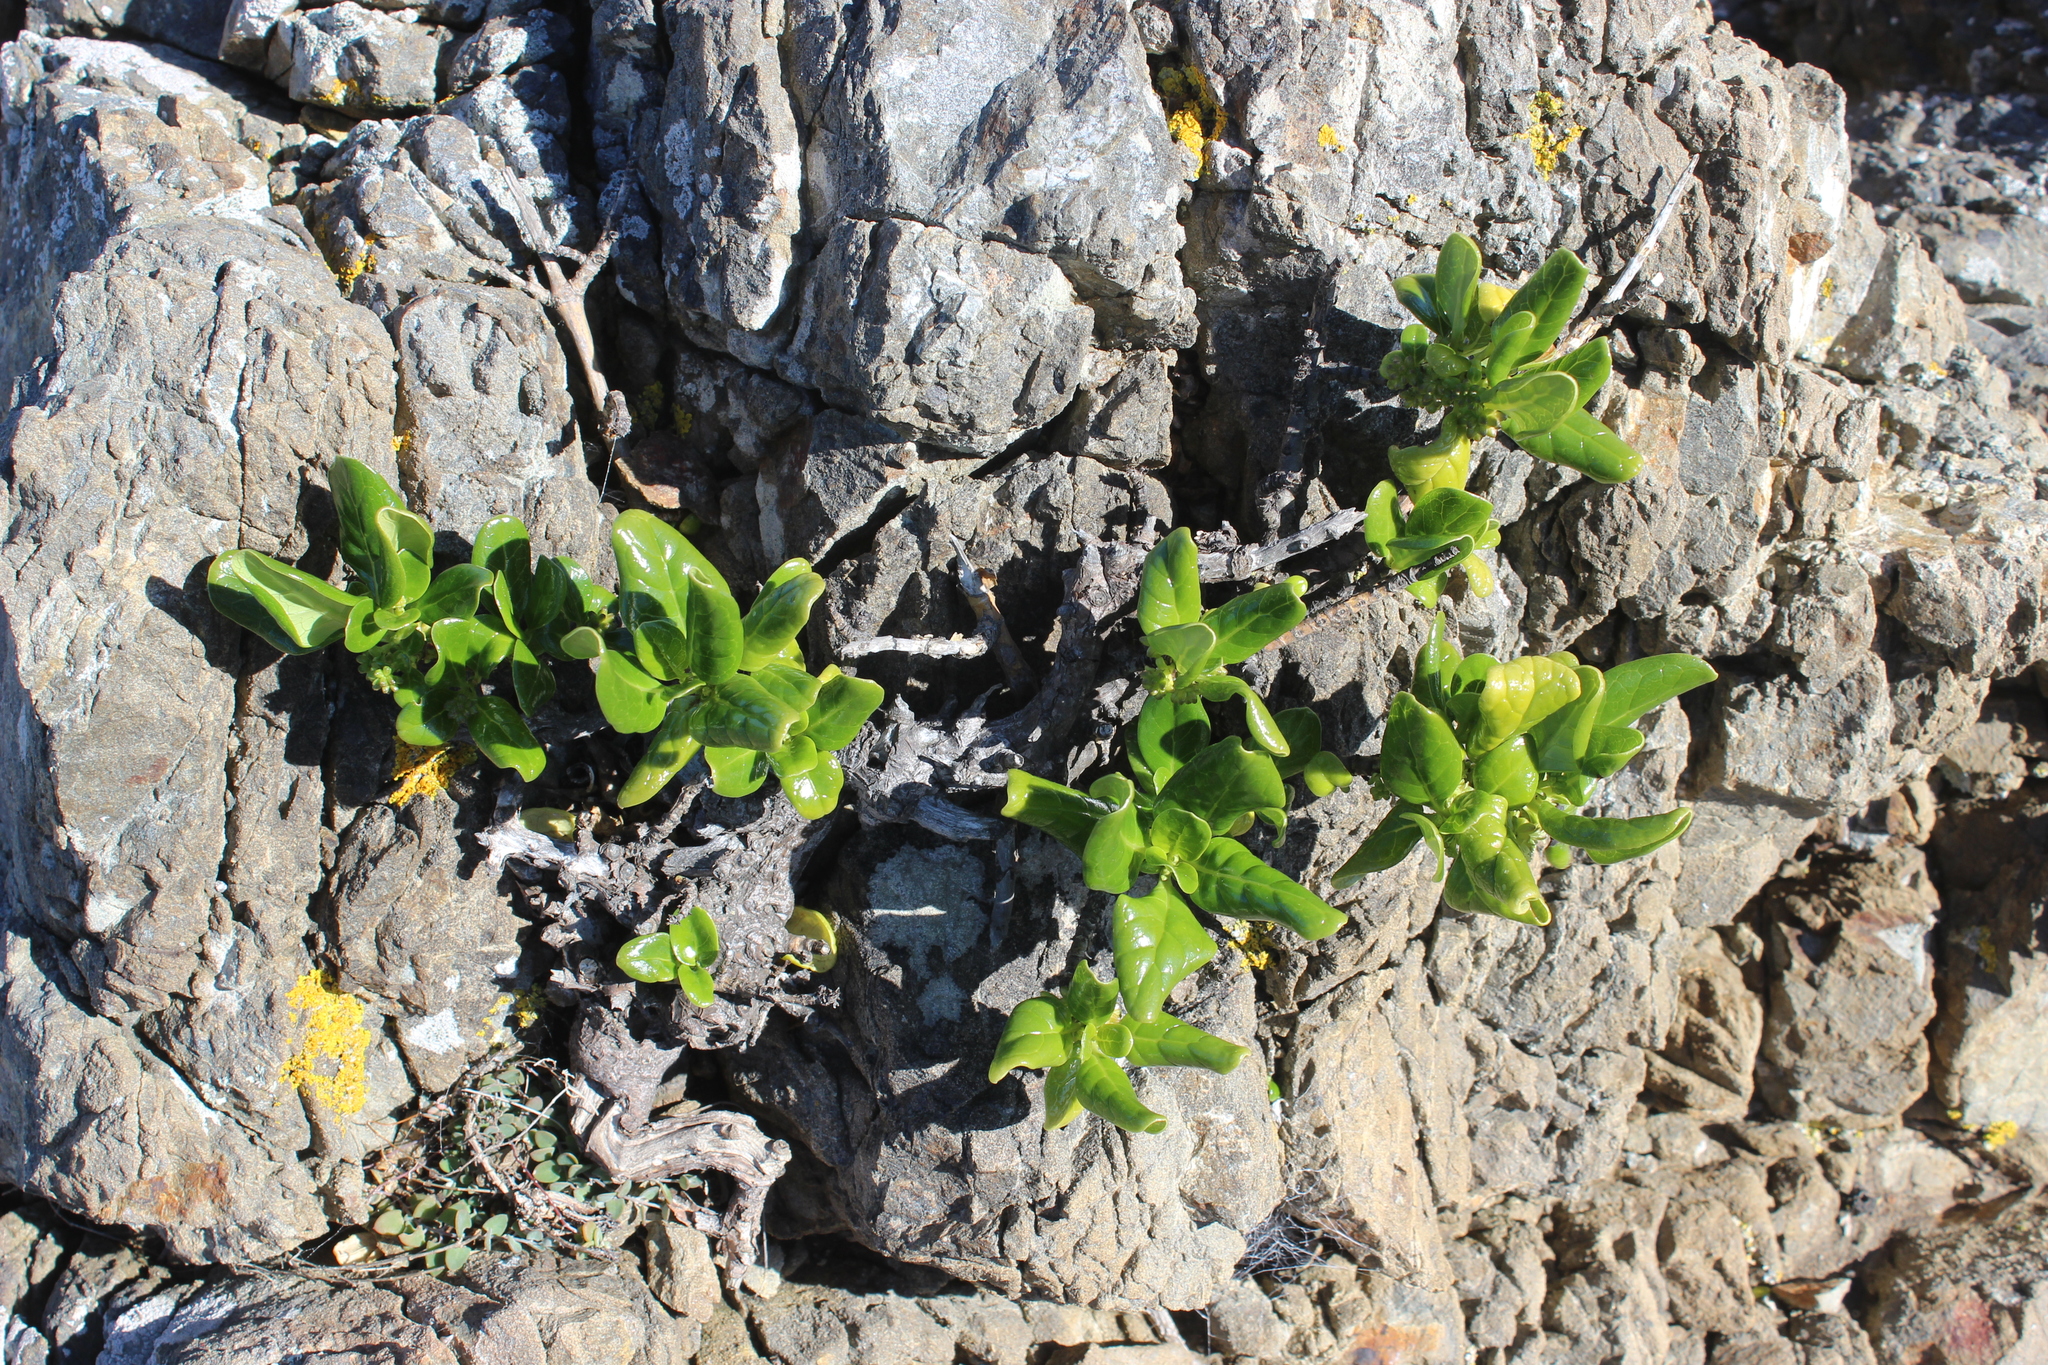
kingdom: Plantae
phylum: Tracheophyta
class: Magnoliopsida
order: Gentianales
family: Rubiaceae
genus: Coprosma
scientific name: Coprosma repens
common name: Tree bedstraw
